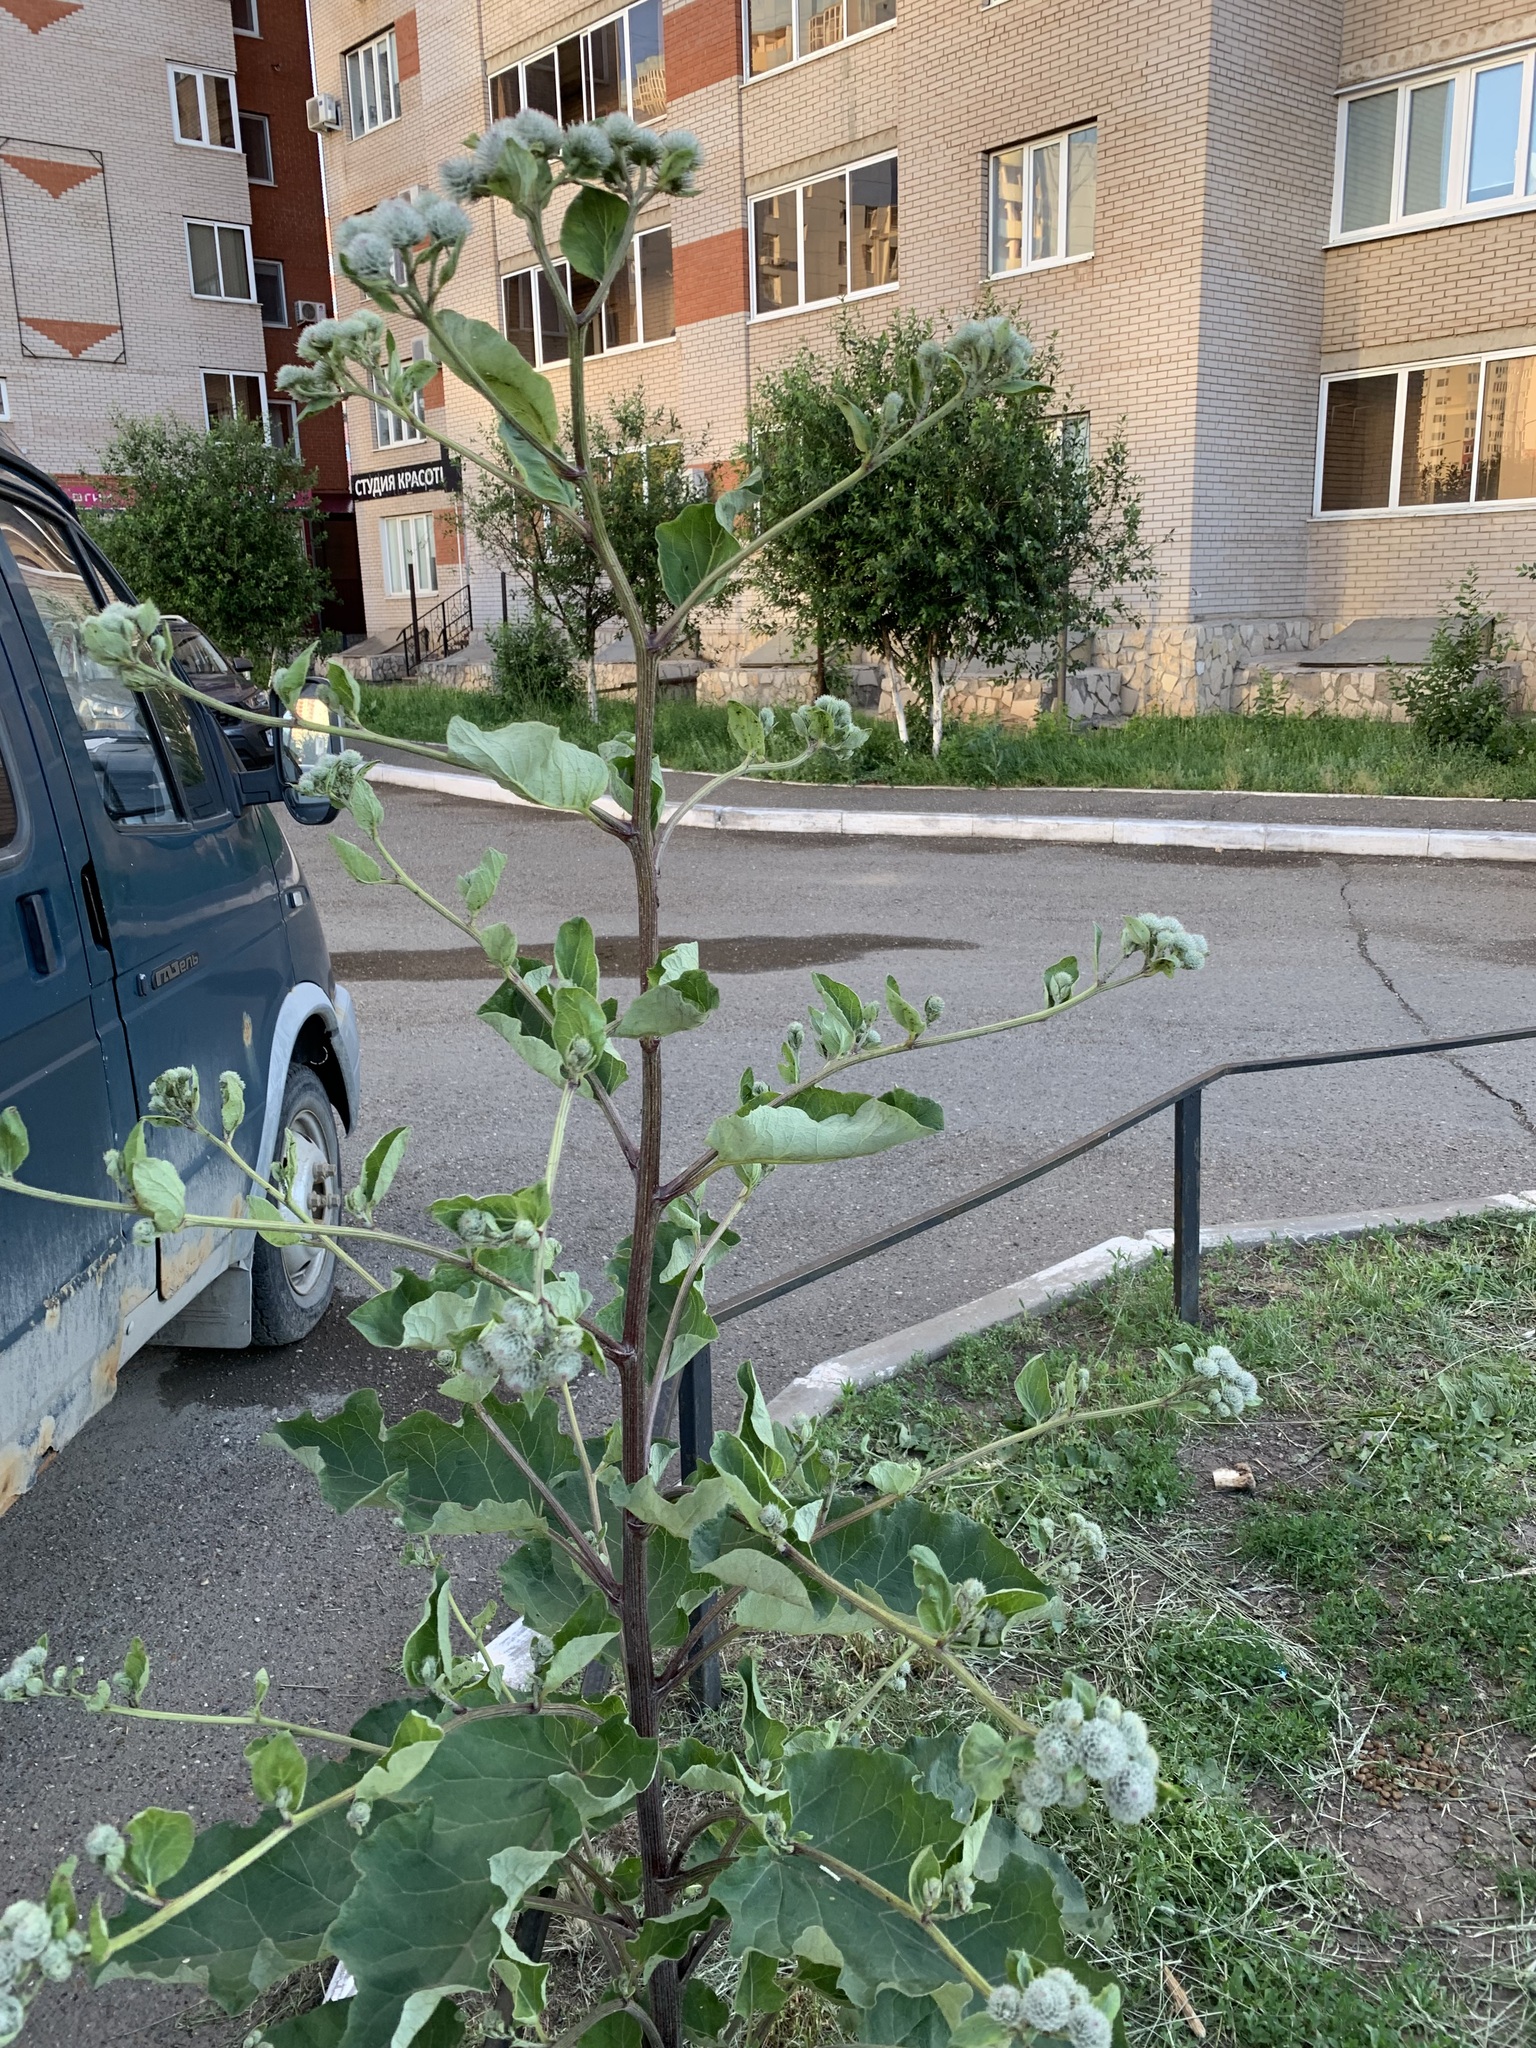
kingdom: Plantae
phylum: Tracheophyta
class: Magnoliopsida
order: Asterales
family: Asteraceae
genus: Arctium
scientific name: Arctium tomentosum
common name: Woolly burdock
